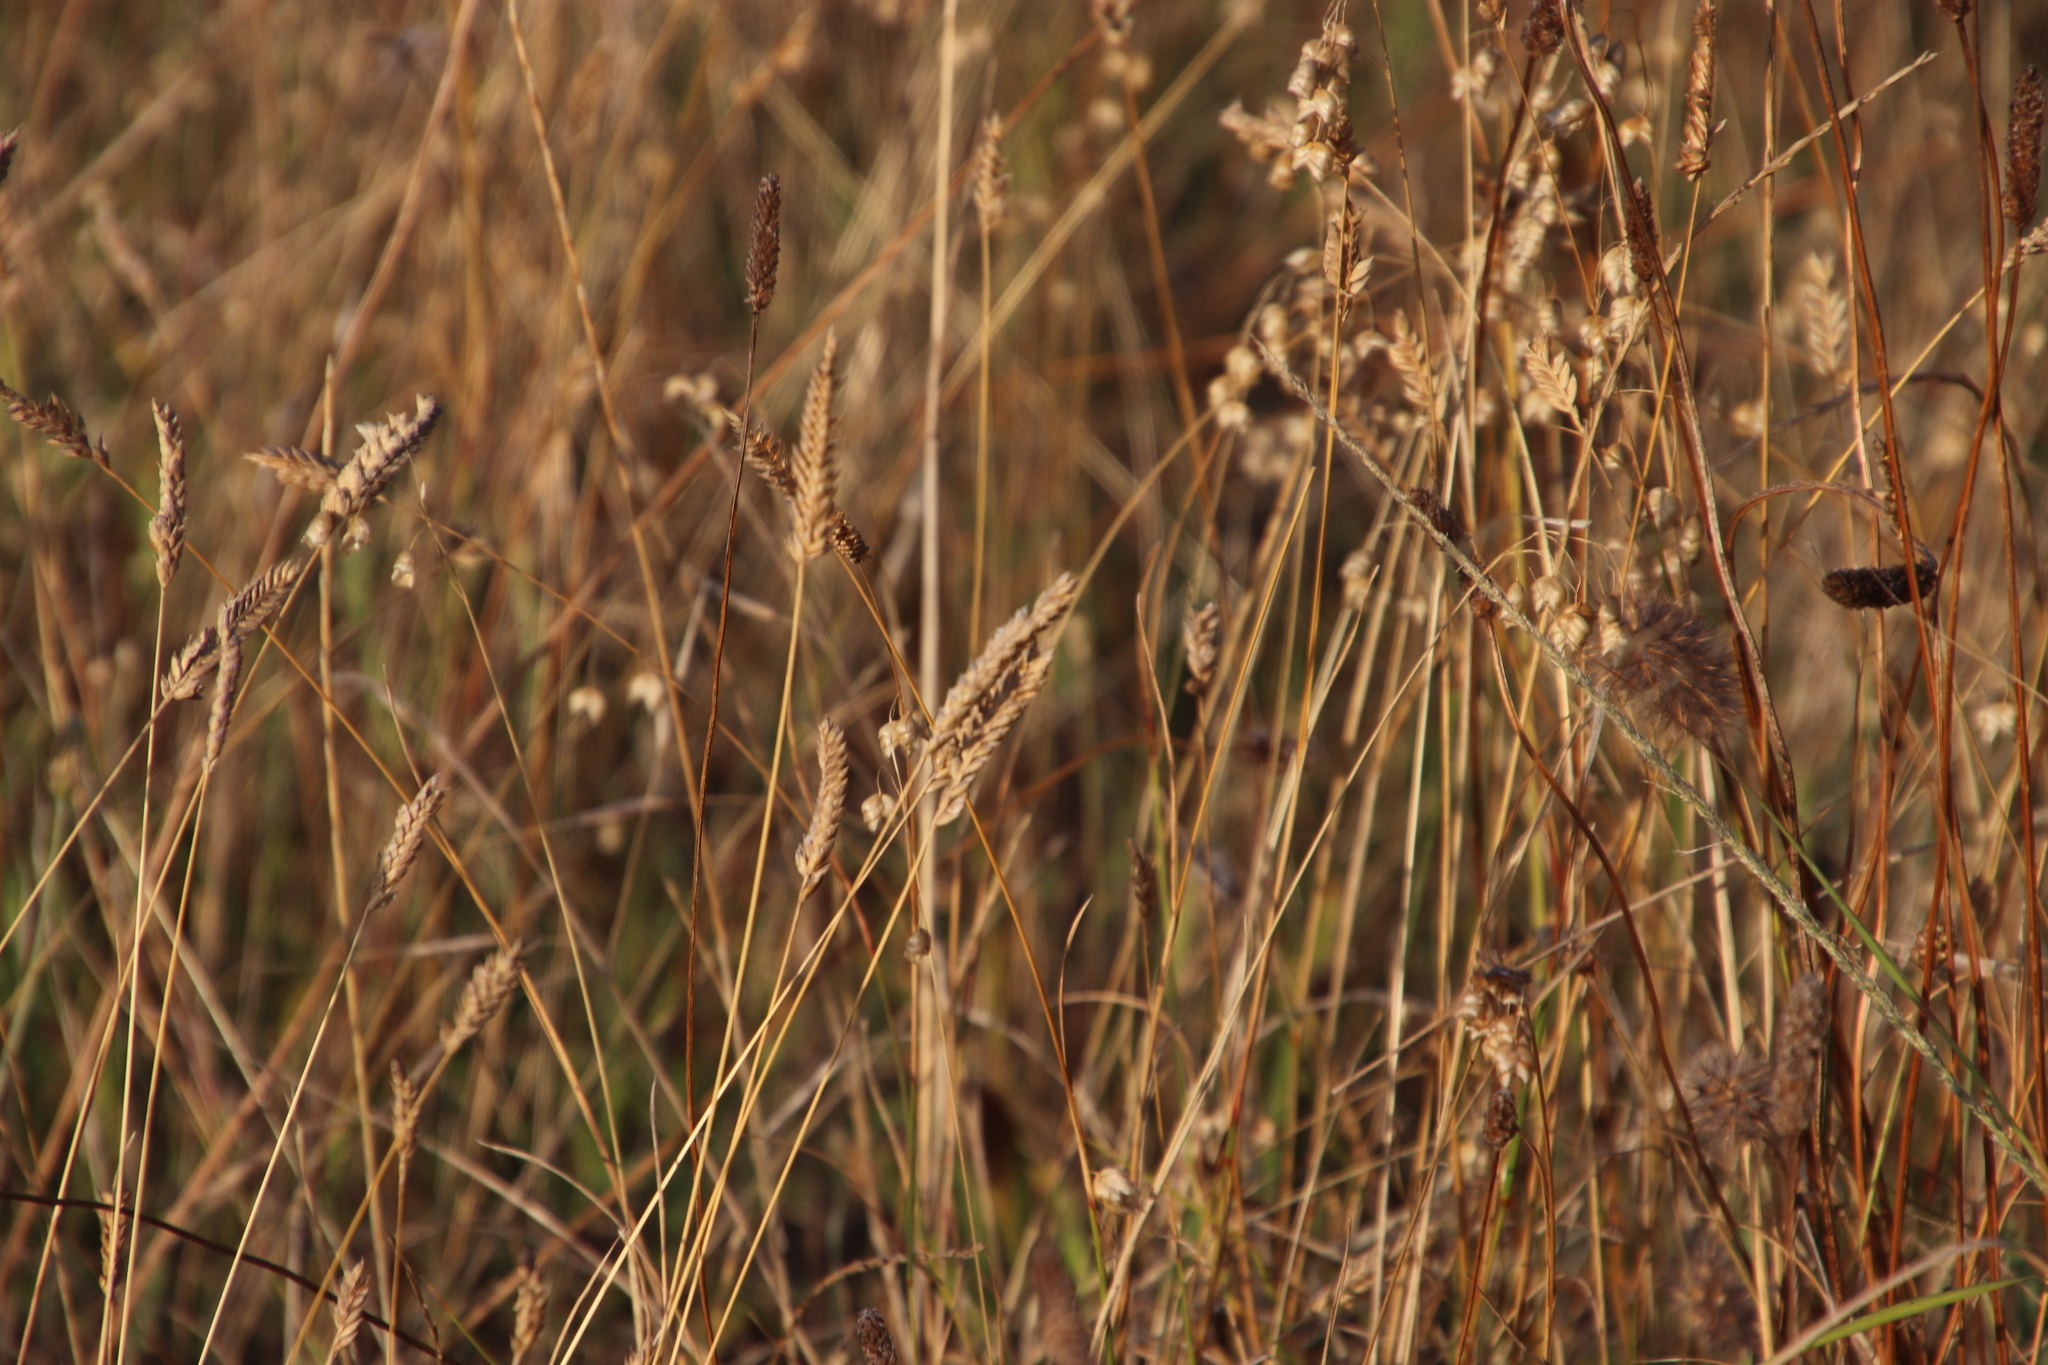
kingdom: Plantae
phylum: Tracheophyta
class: Liliopsida
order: Poales
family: Poaceae
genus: Tribolium
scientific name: Tribolium uniolae
